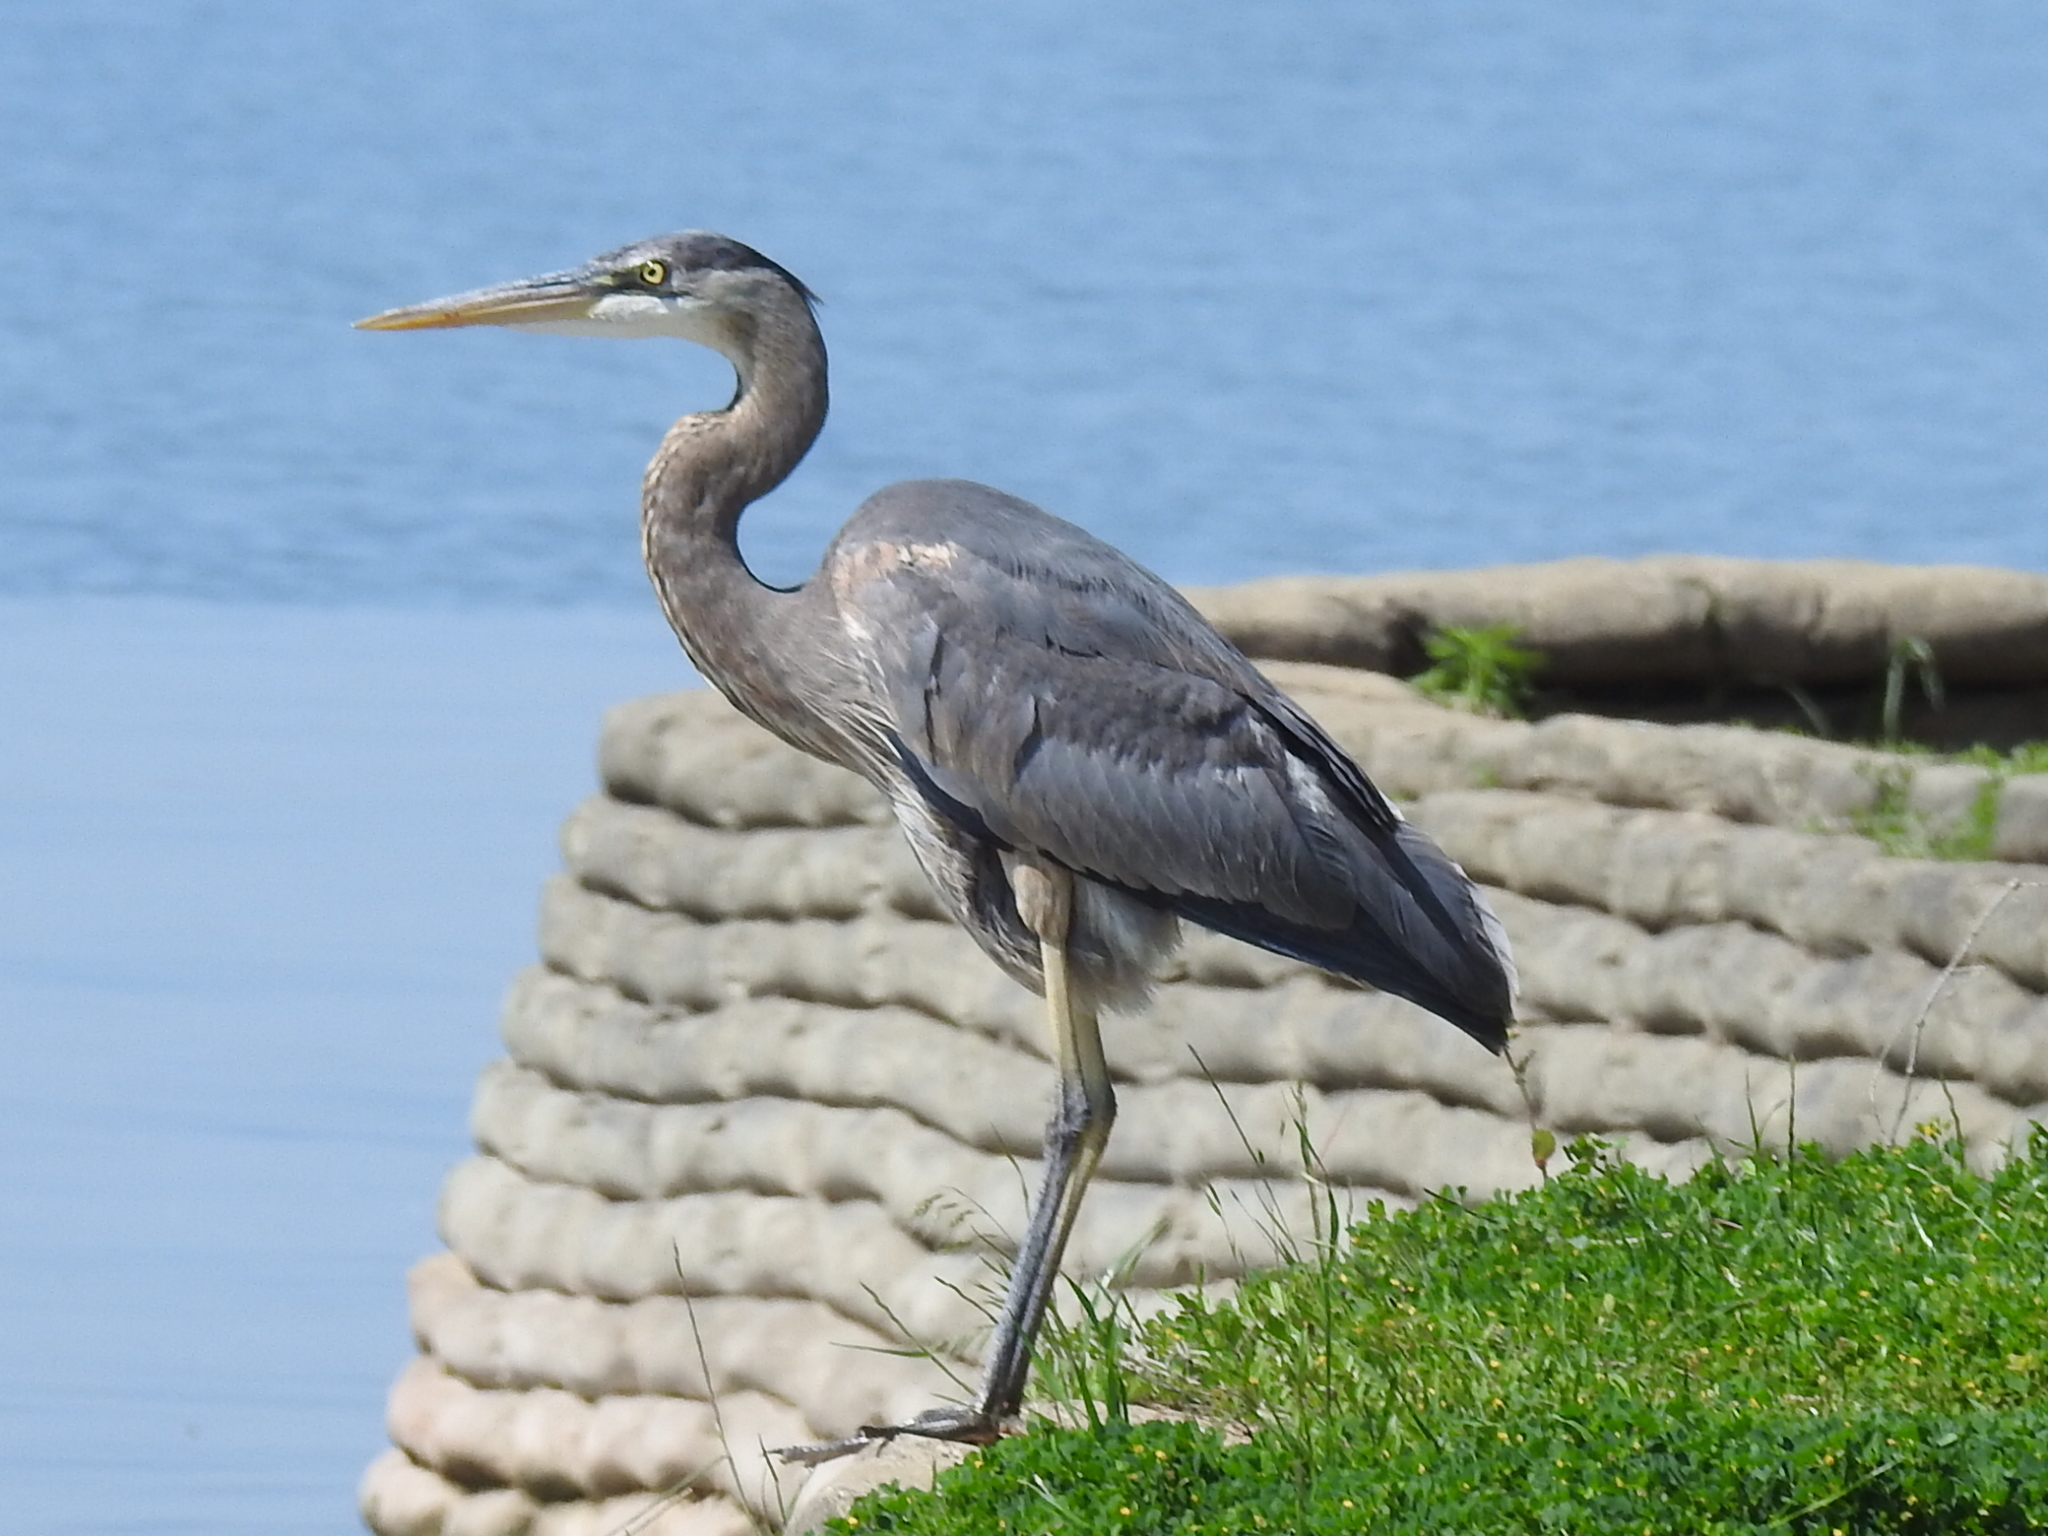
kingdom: Animalia
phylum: Chordata
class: Aves
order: Pelecaniformes
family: Ardeidae
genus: Ardea
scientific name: Ardea herodias
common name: Great blue heron
